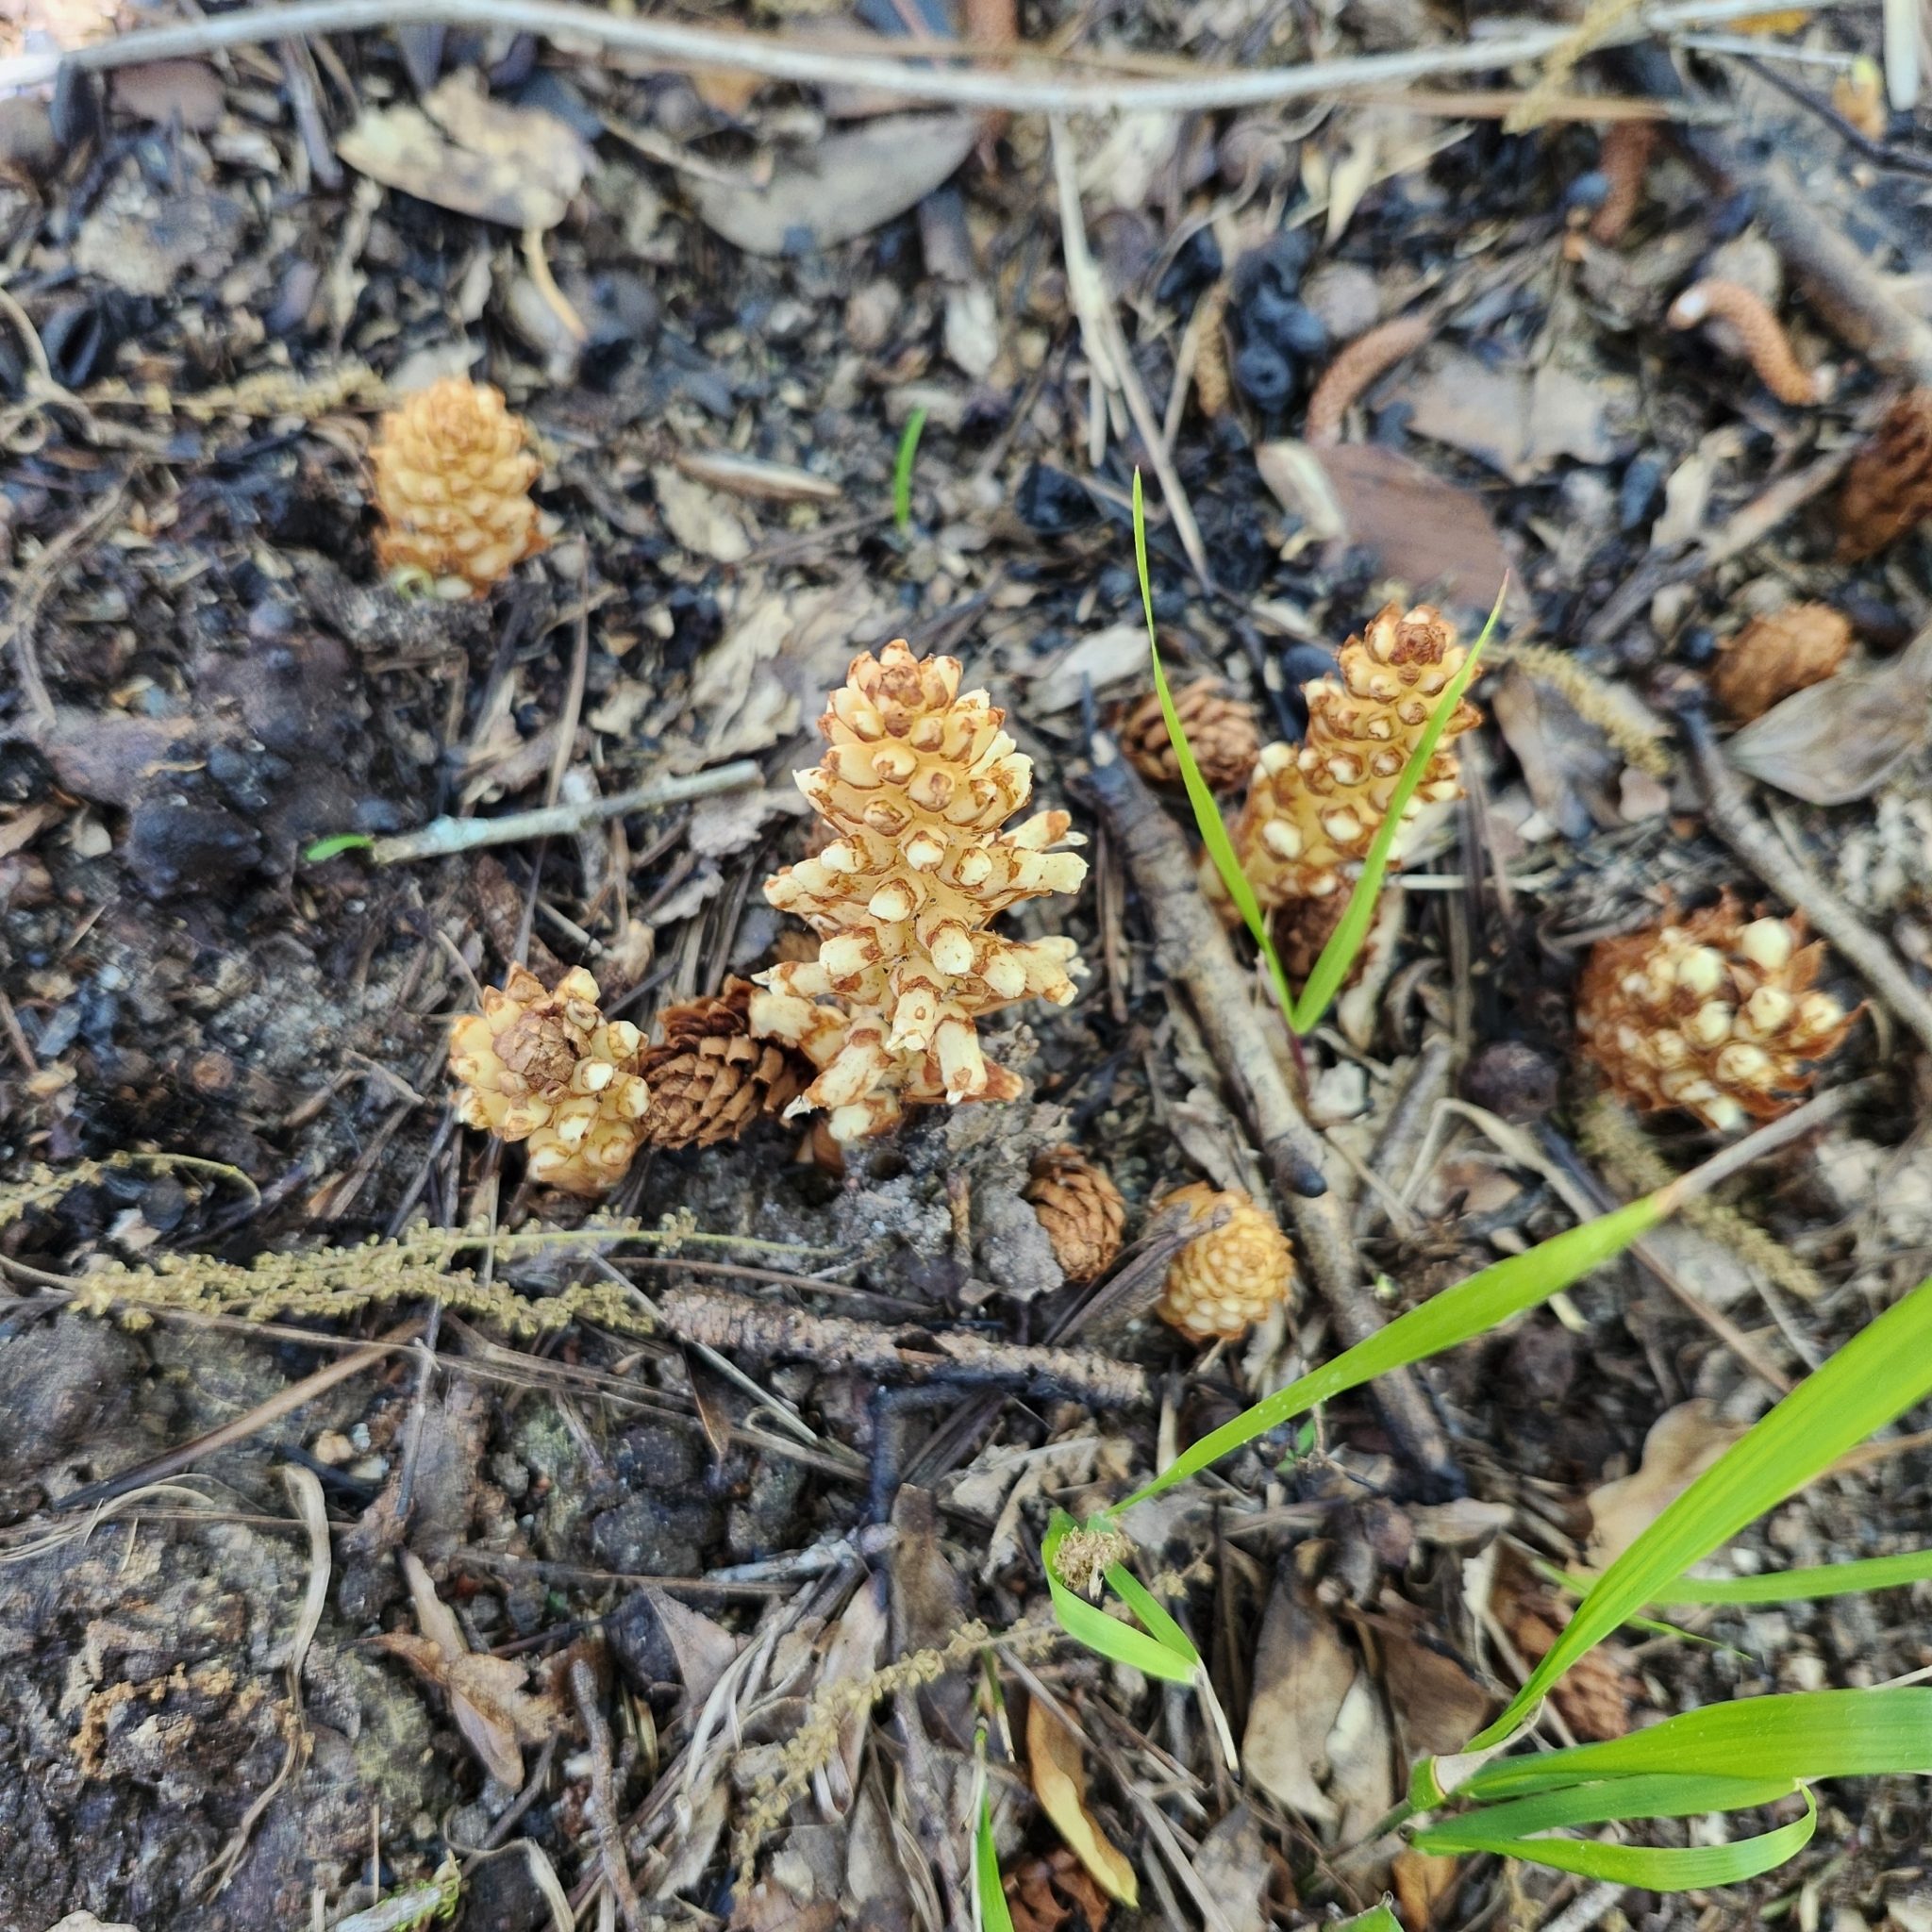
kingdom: Plantae
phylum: Tracheophyta
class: Magnoliopsida
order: Lamiales
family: Orobanchaceae
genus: Conopholis
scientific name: Conopholis americana
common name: American cancer-root
